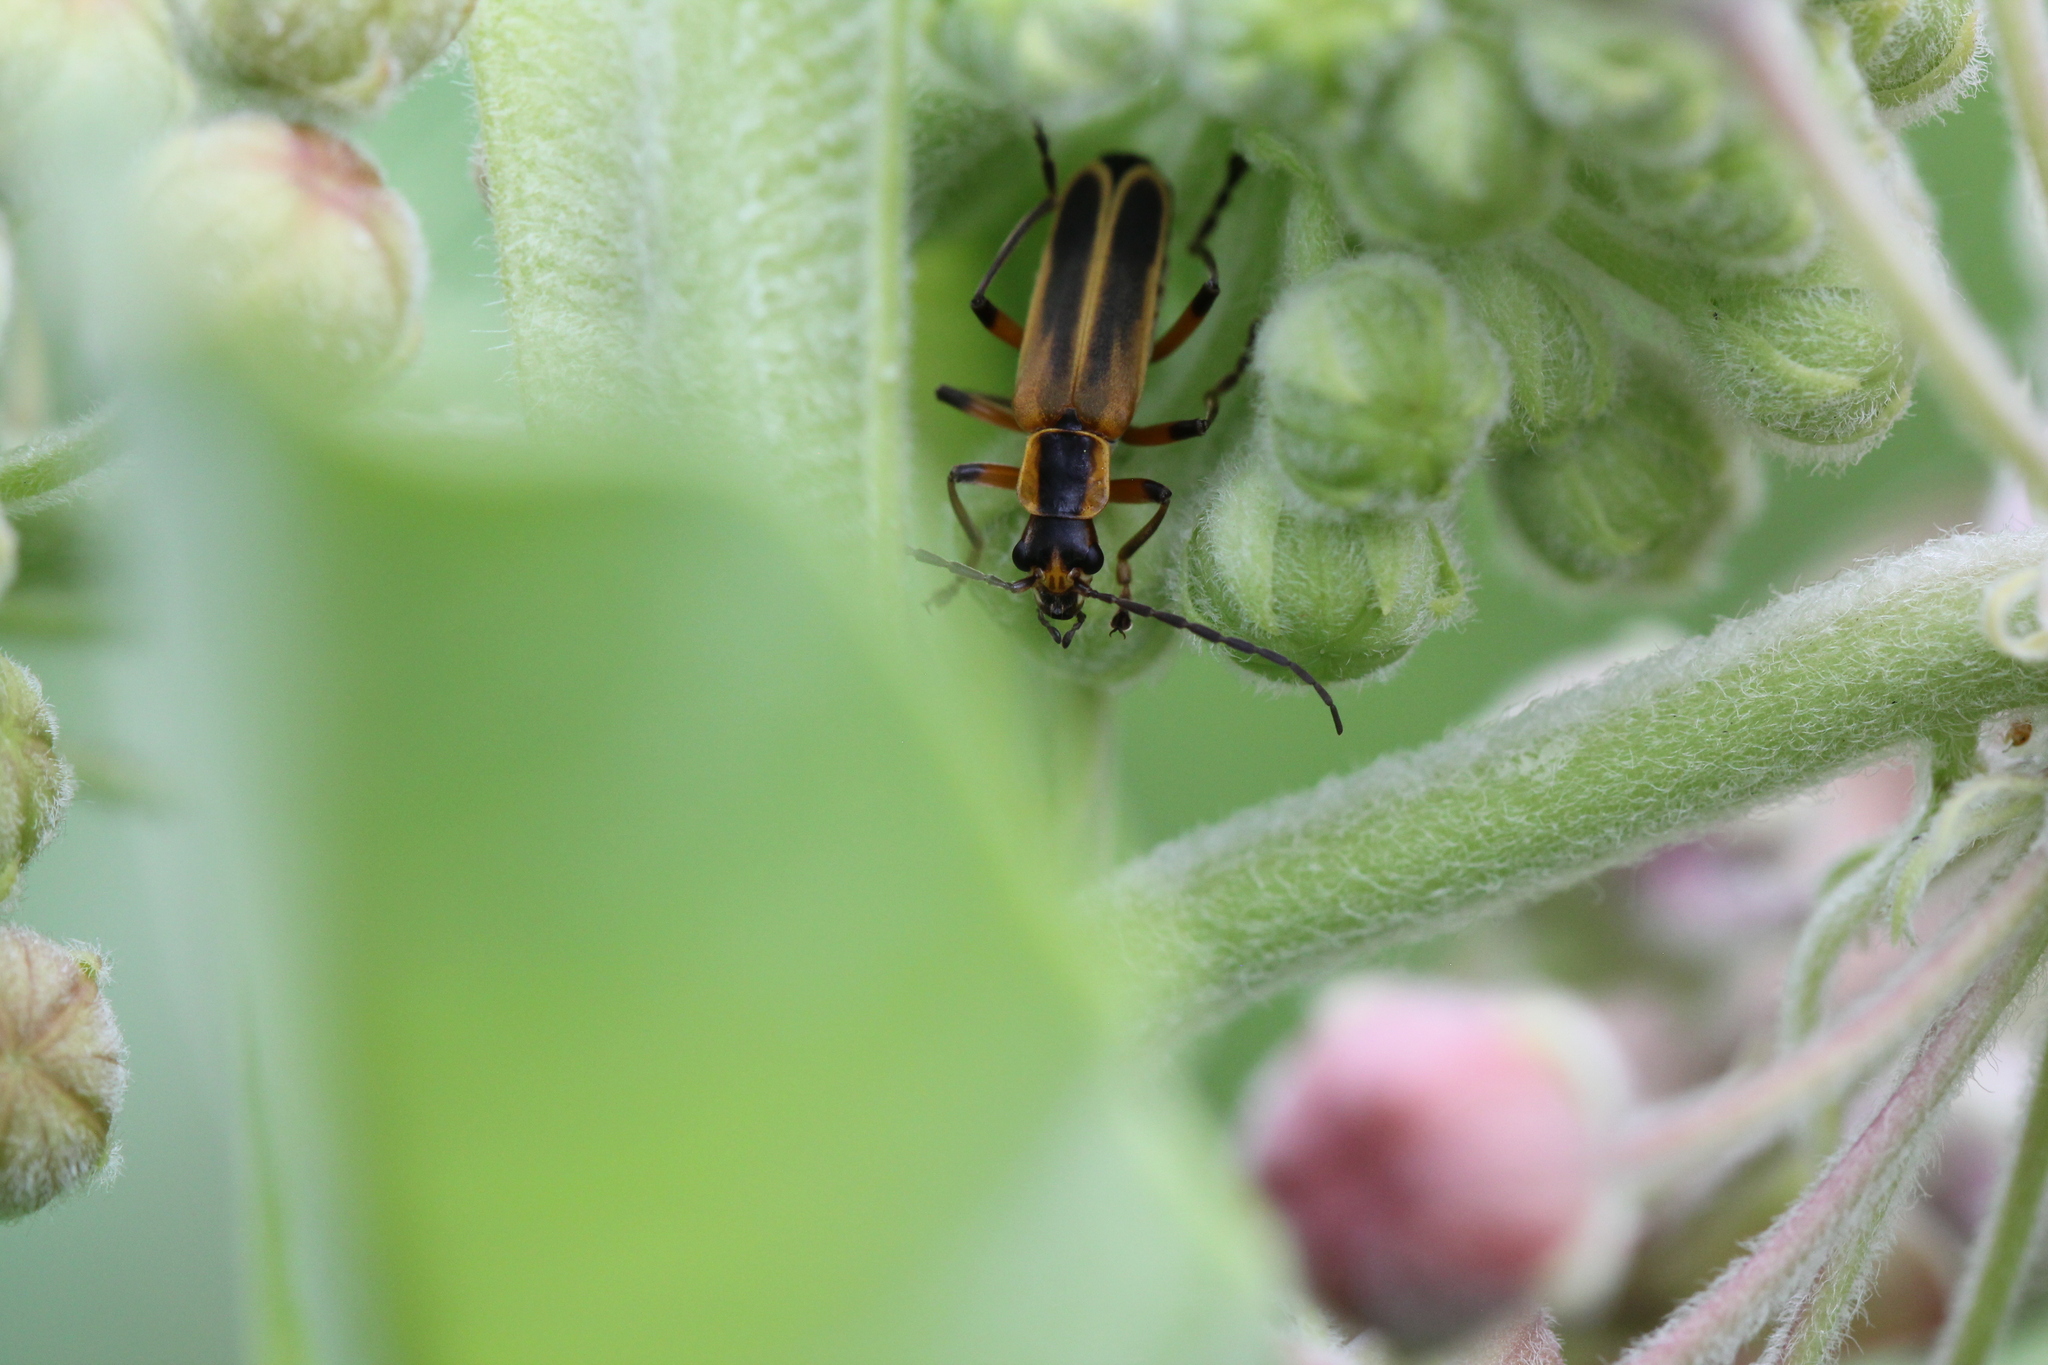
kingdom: Animalia
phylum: Arthropoda
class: Insecta
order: Coleoptera
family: Cantharidae
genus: Chauliognathus
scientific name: Chauliognathus marginatus
